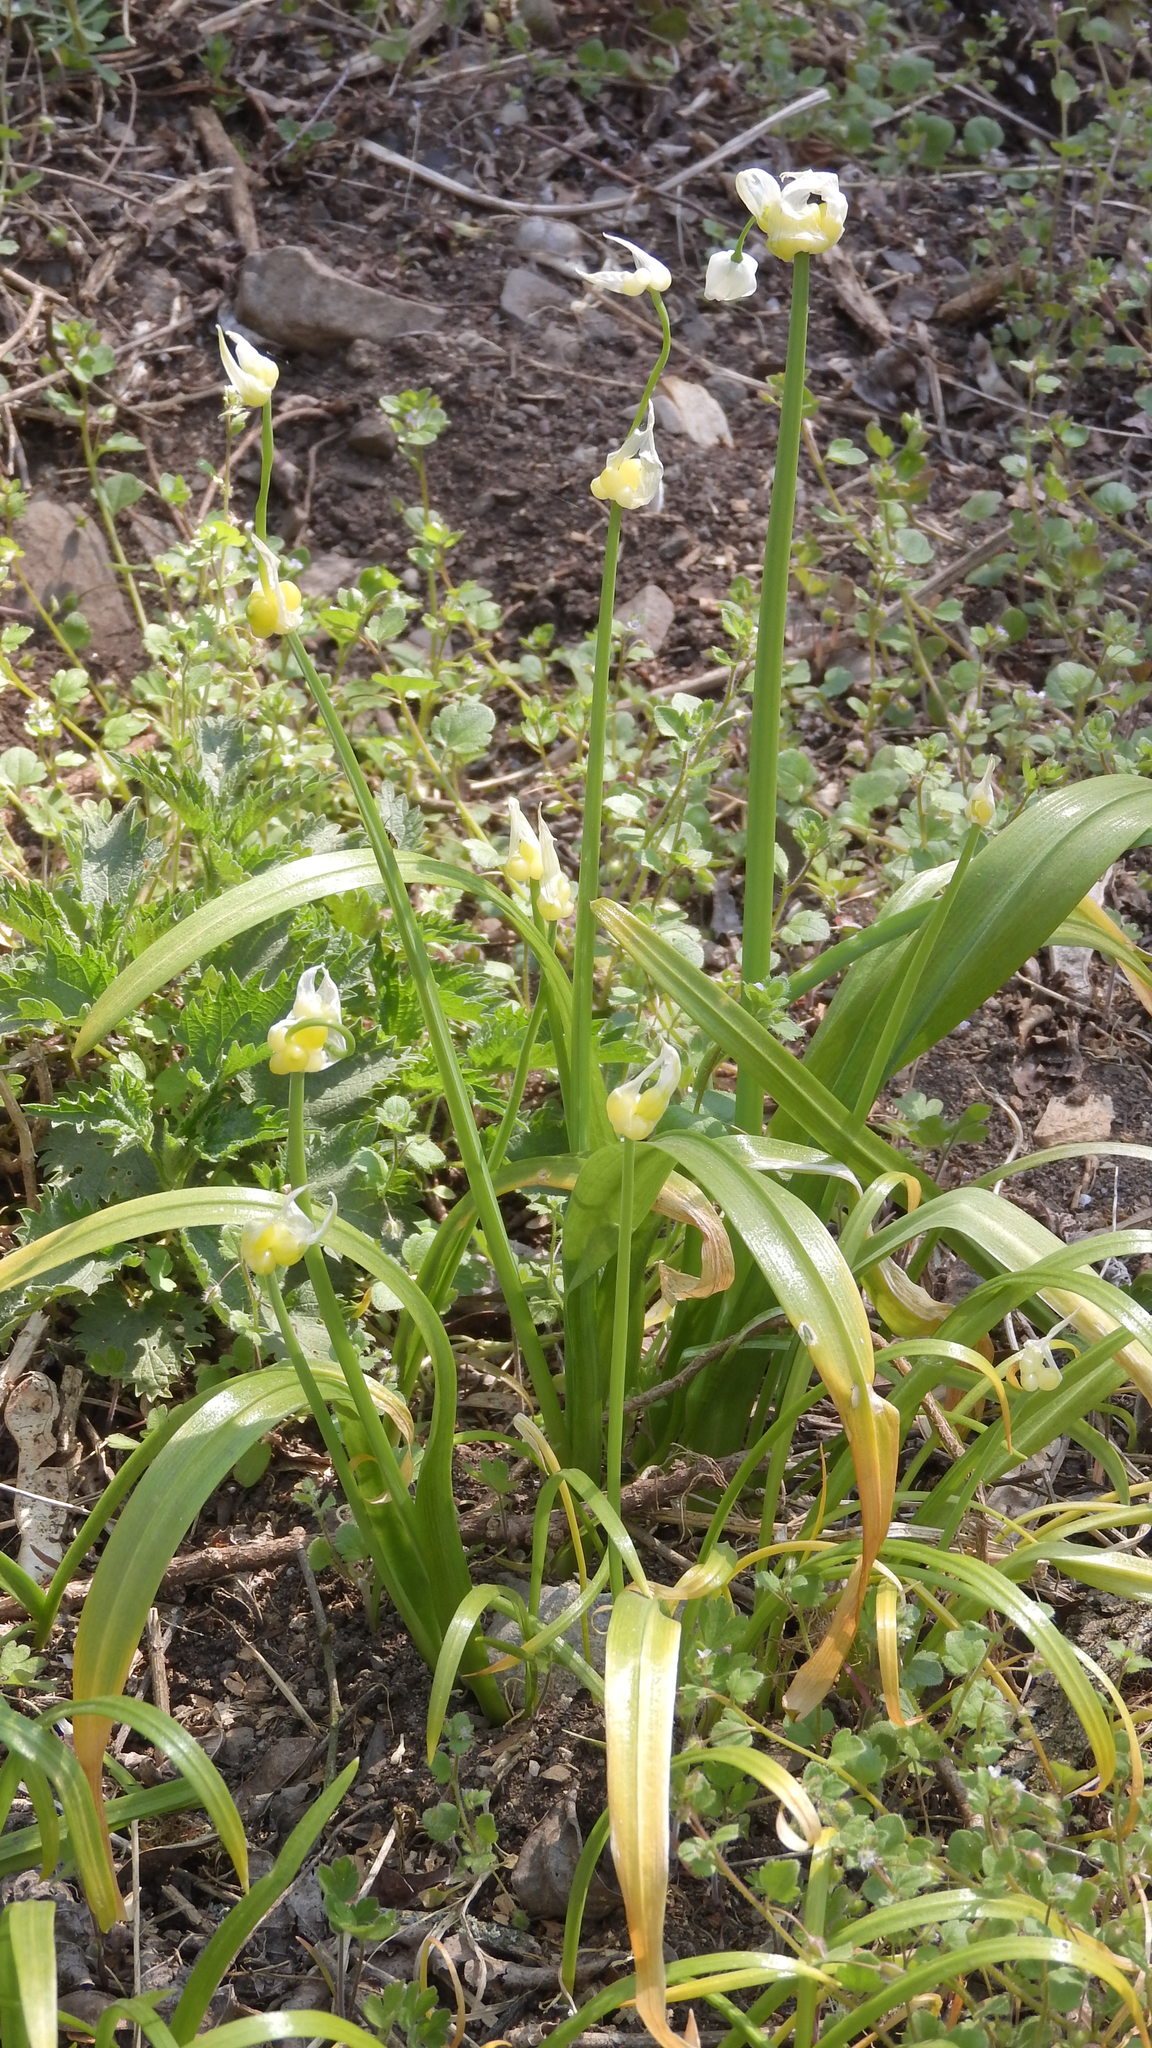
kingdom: Plantae
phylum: Tracheophyta
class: Liliopsida
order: Asparagales
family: Amaryllidaceae
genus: Allium
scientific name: Allium paradoxum
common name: Few-flowered garlic
